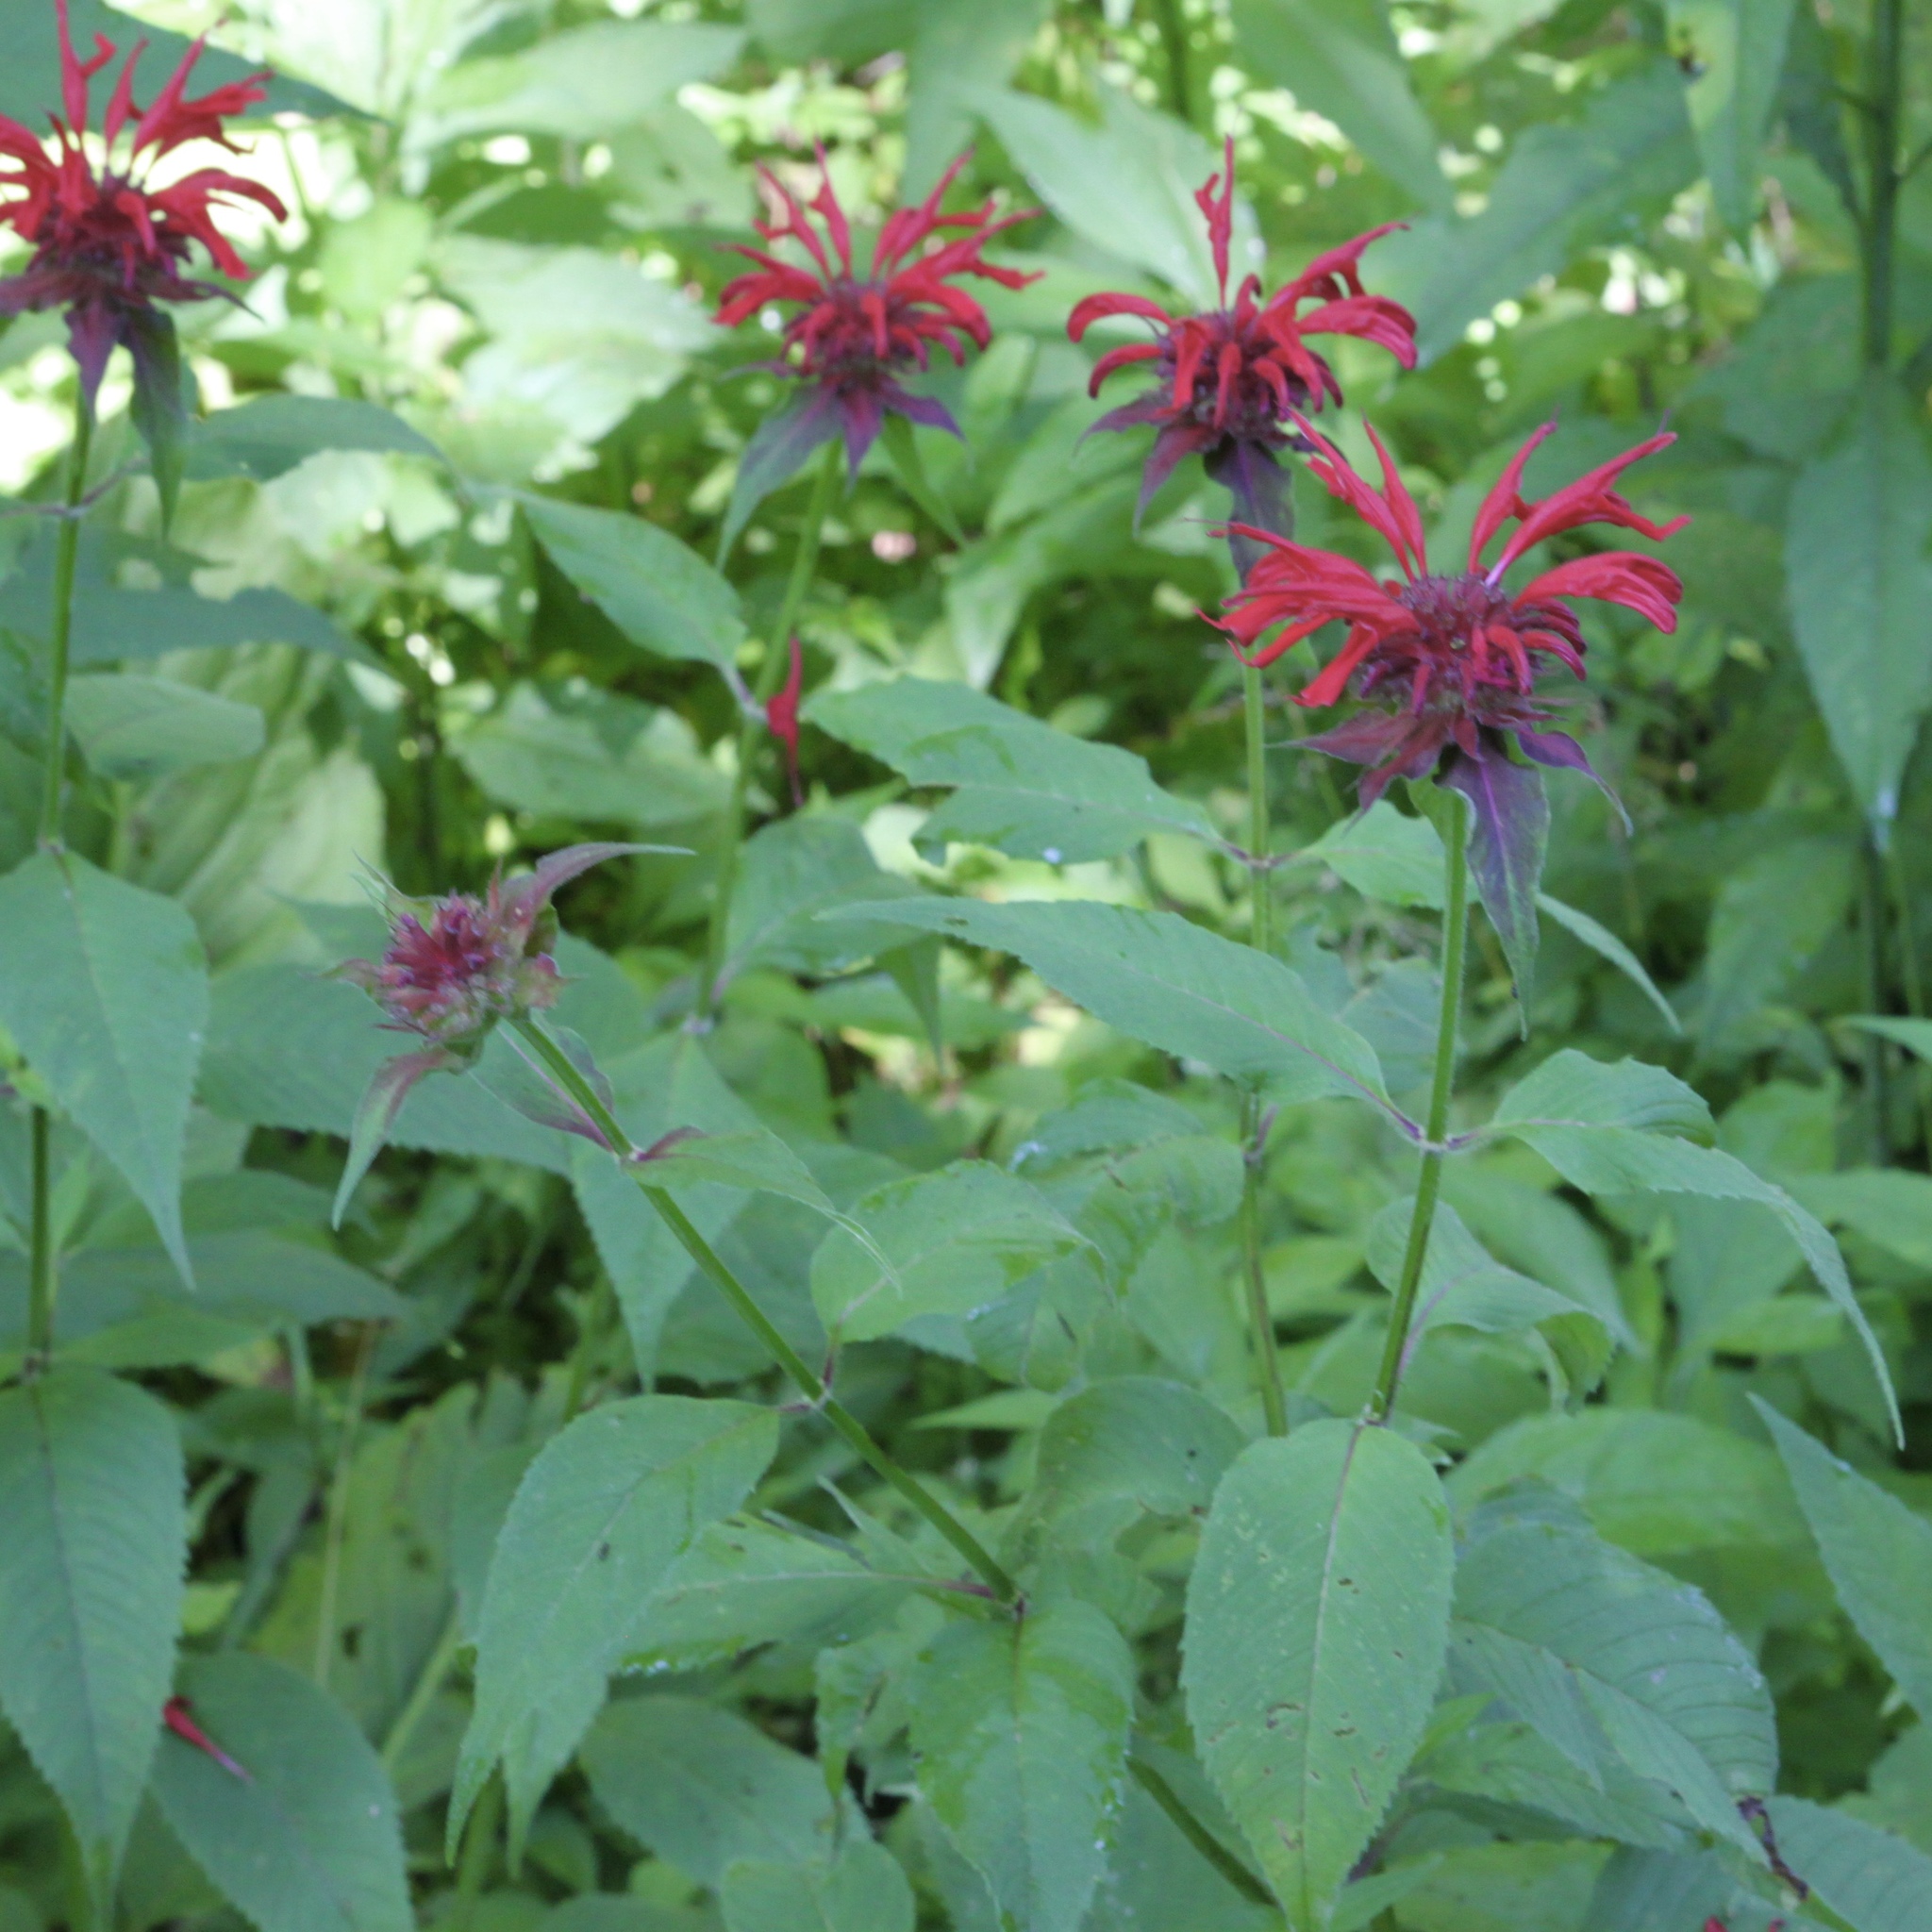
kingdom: Plantae
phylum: Tracheophyta
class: Magnoliopsida
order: Lamiales
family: Lamiaceae
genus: Monarda
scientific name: Monarda didyma
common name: Beebalm
